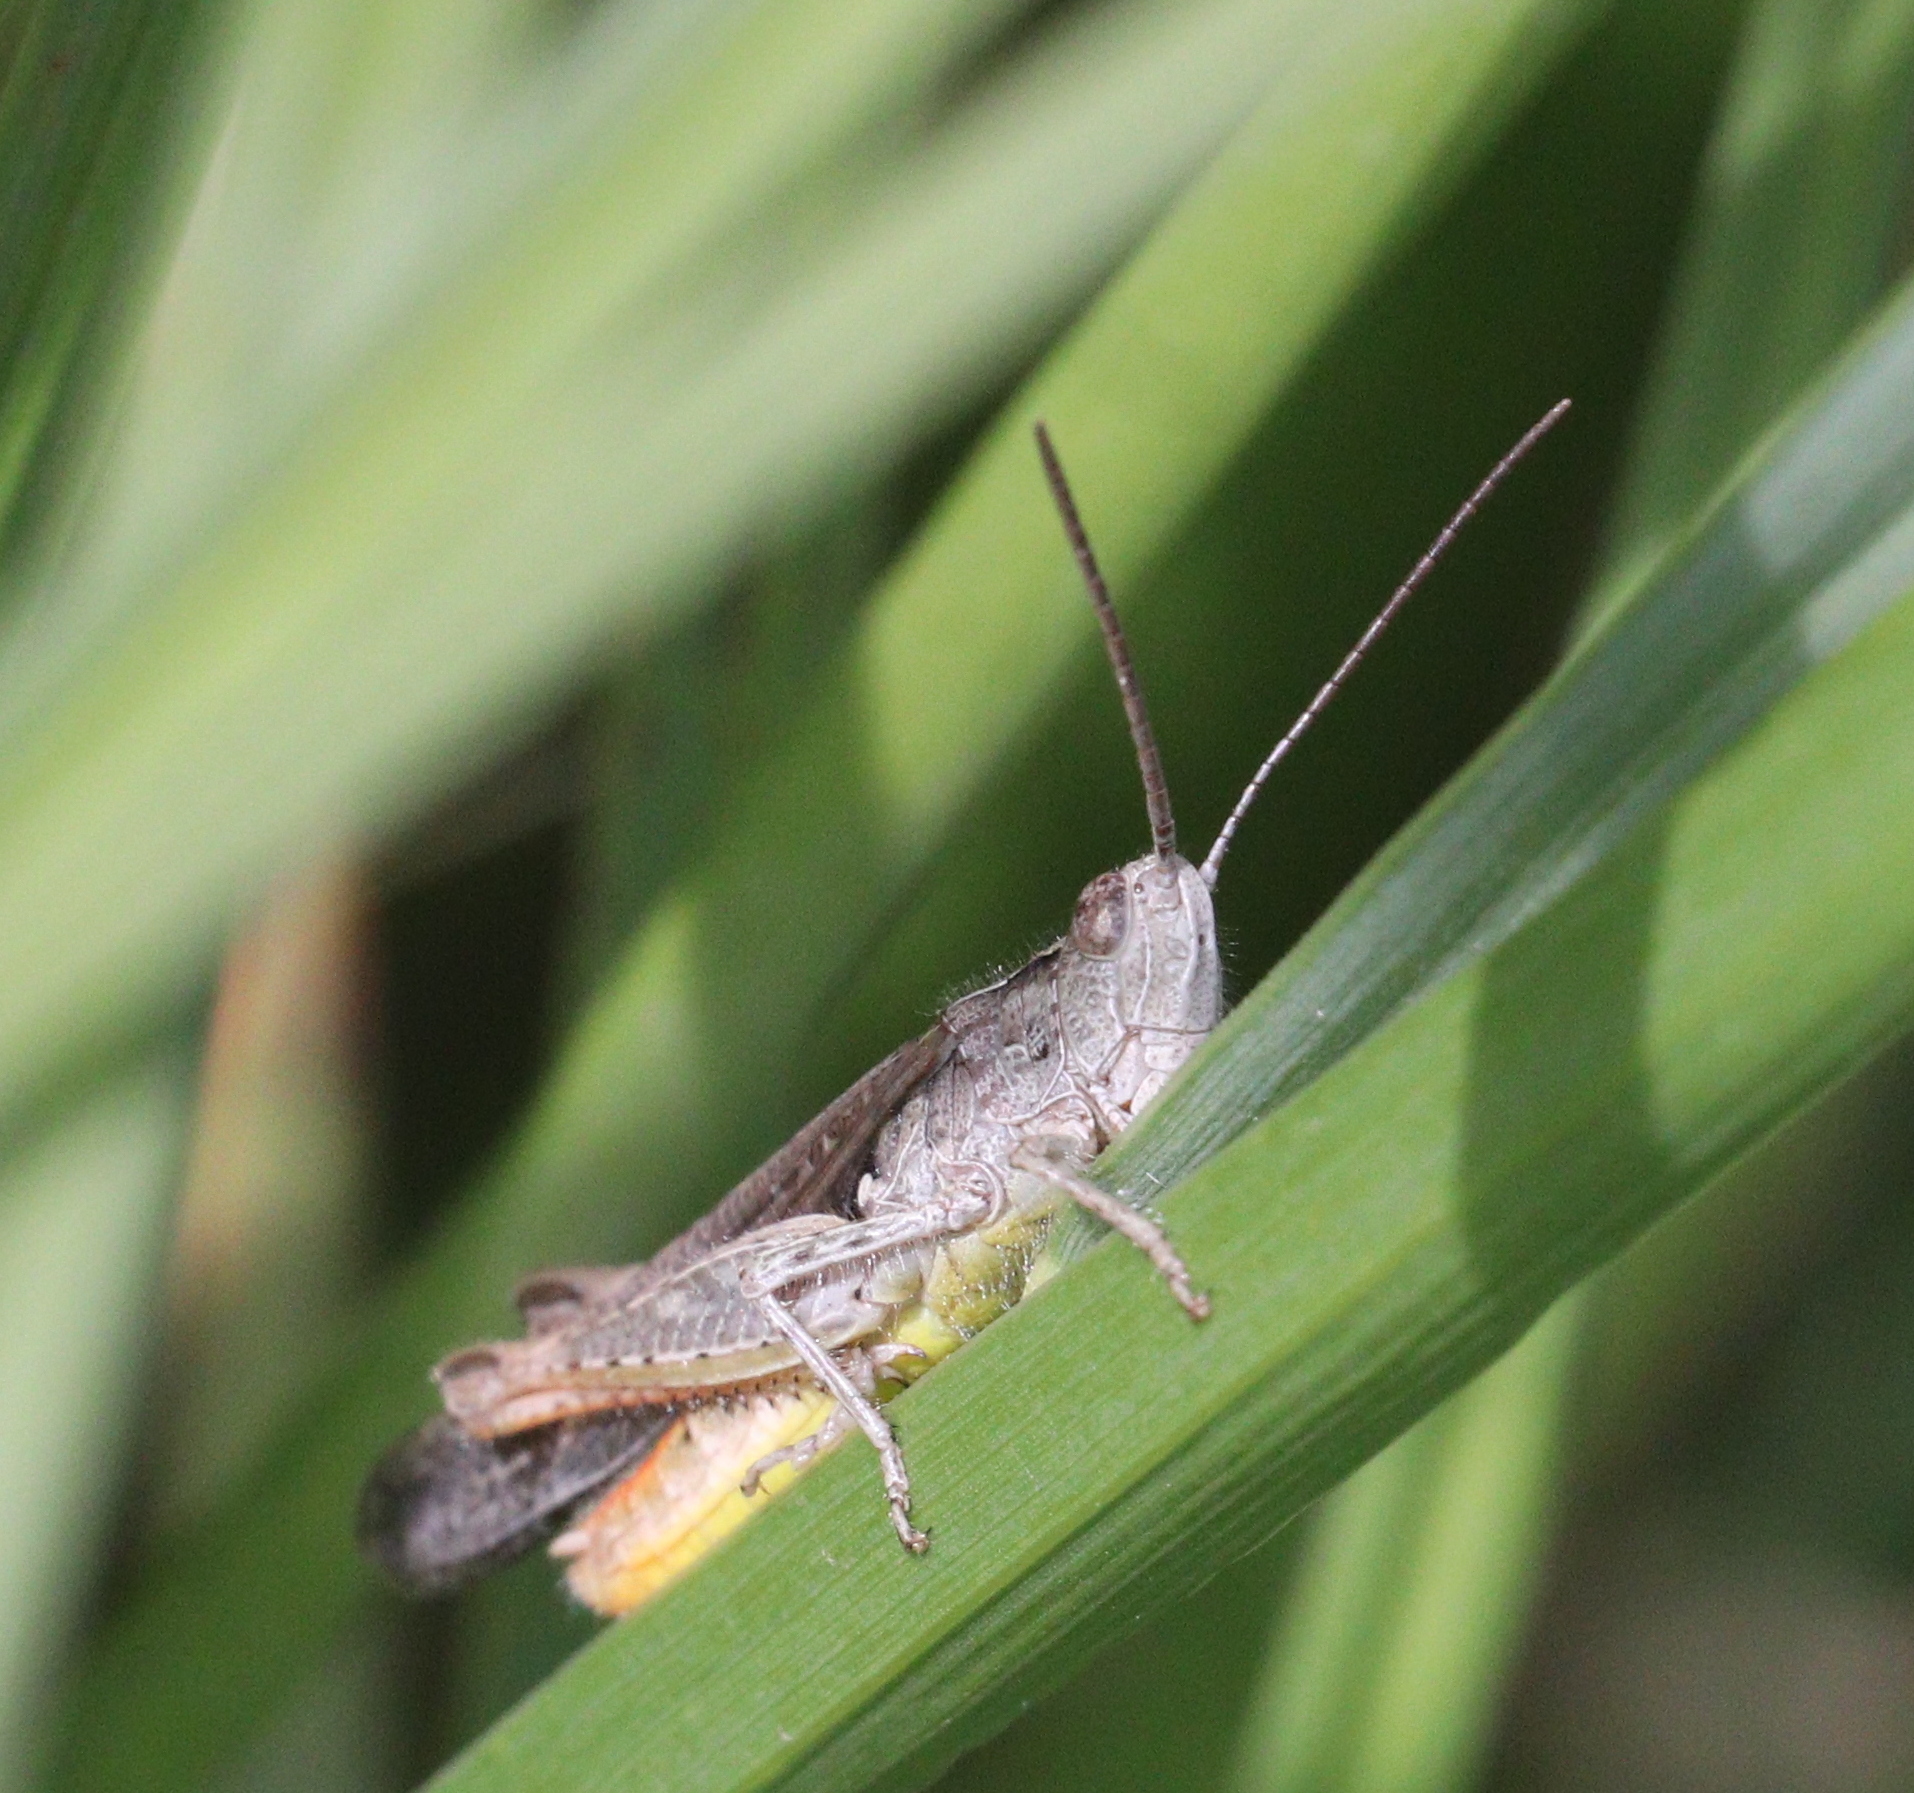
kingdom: Animalia
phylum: Arthropoda
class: Insecta
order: Orthoptera
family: Acrididae
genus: Chorthippus
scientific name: Chorthippus brunneus
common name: Field grasshopper
